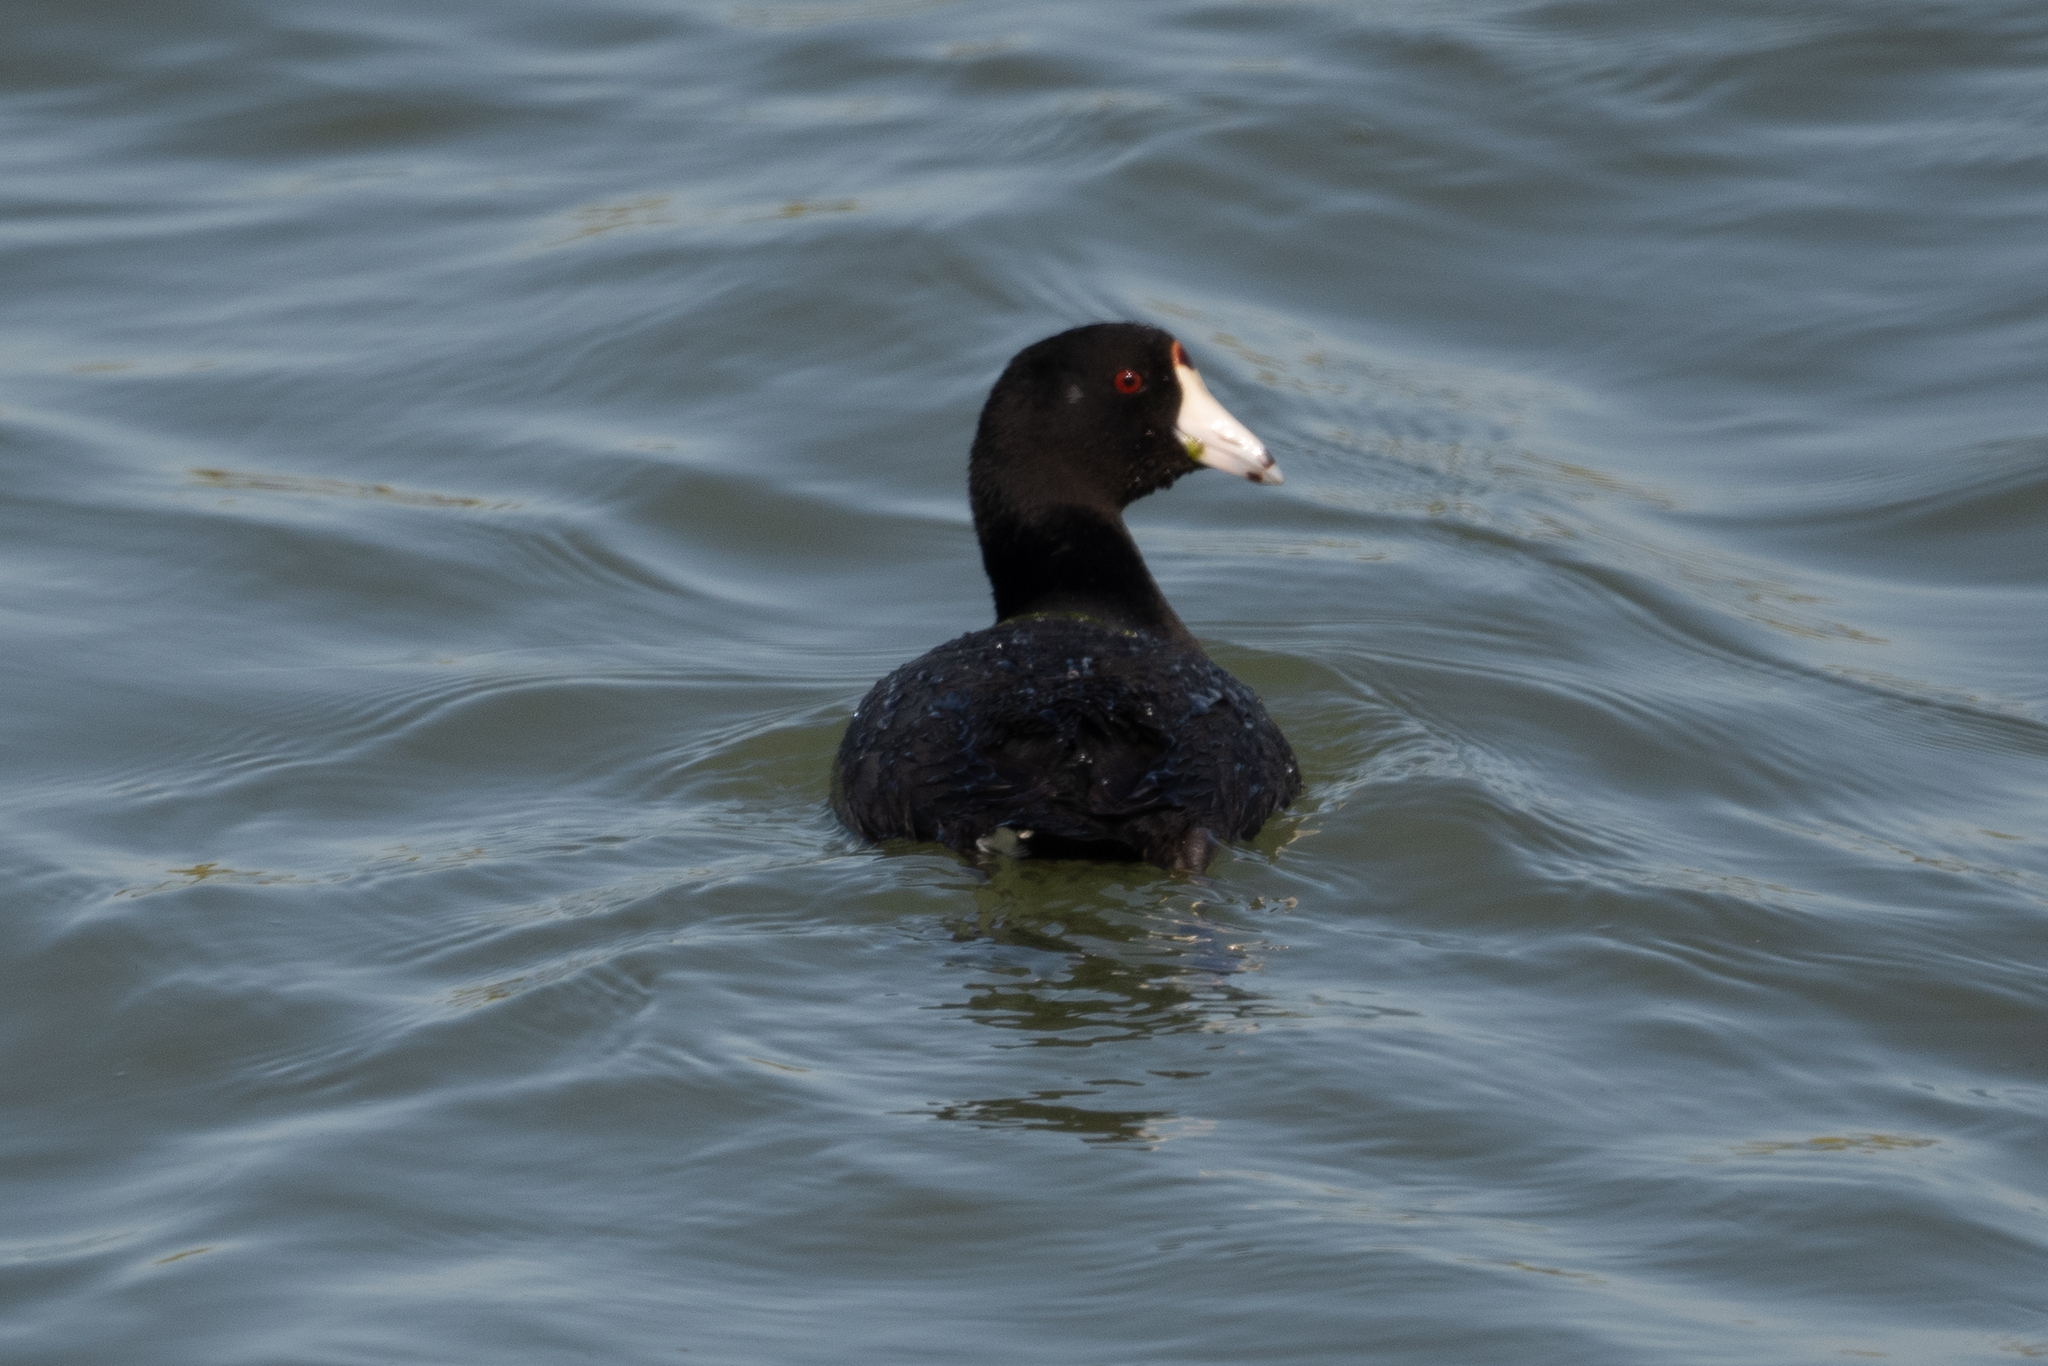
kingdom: Animalia
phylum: Chordata
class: Aves
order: Gruiformes
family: Rallidae
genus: Fulica
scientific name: Fulica americana
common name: American coot
